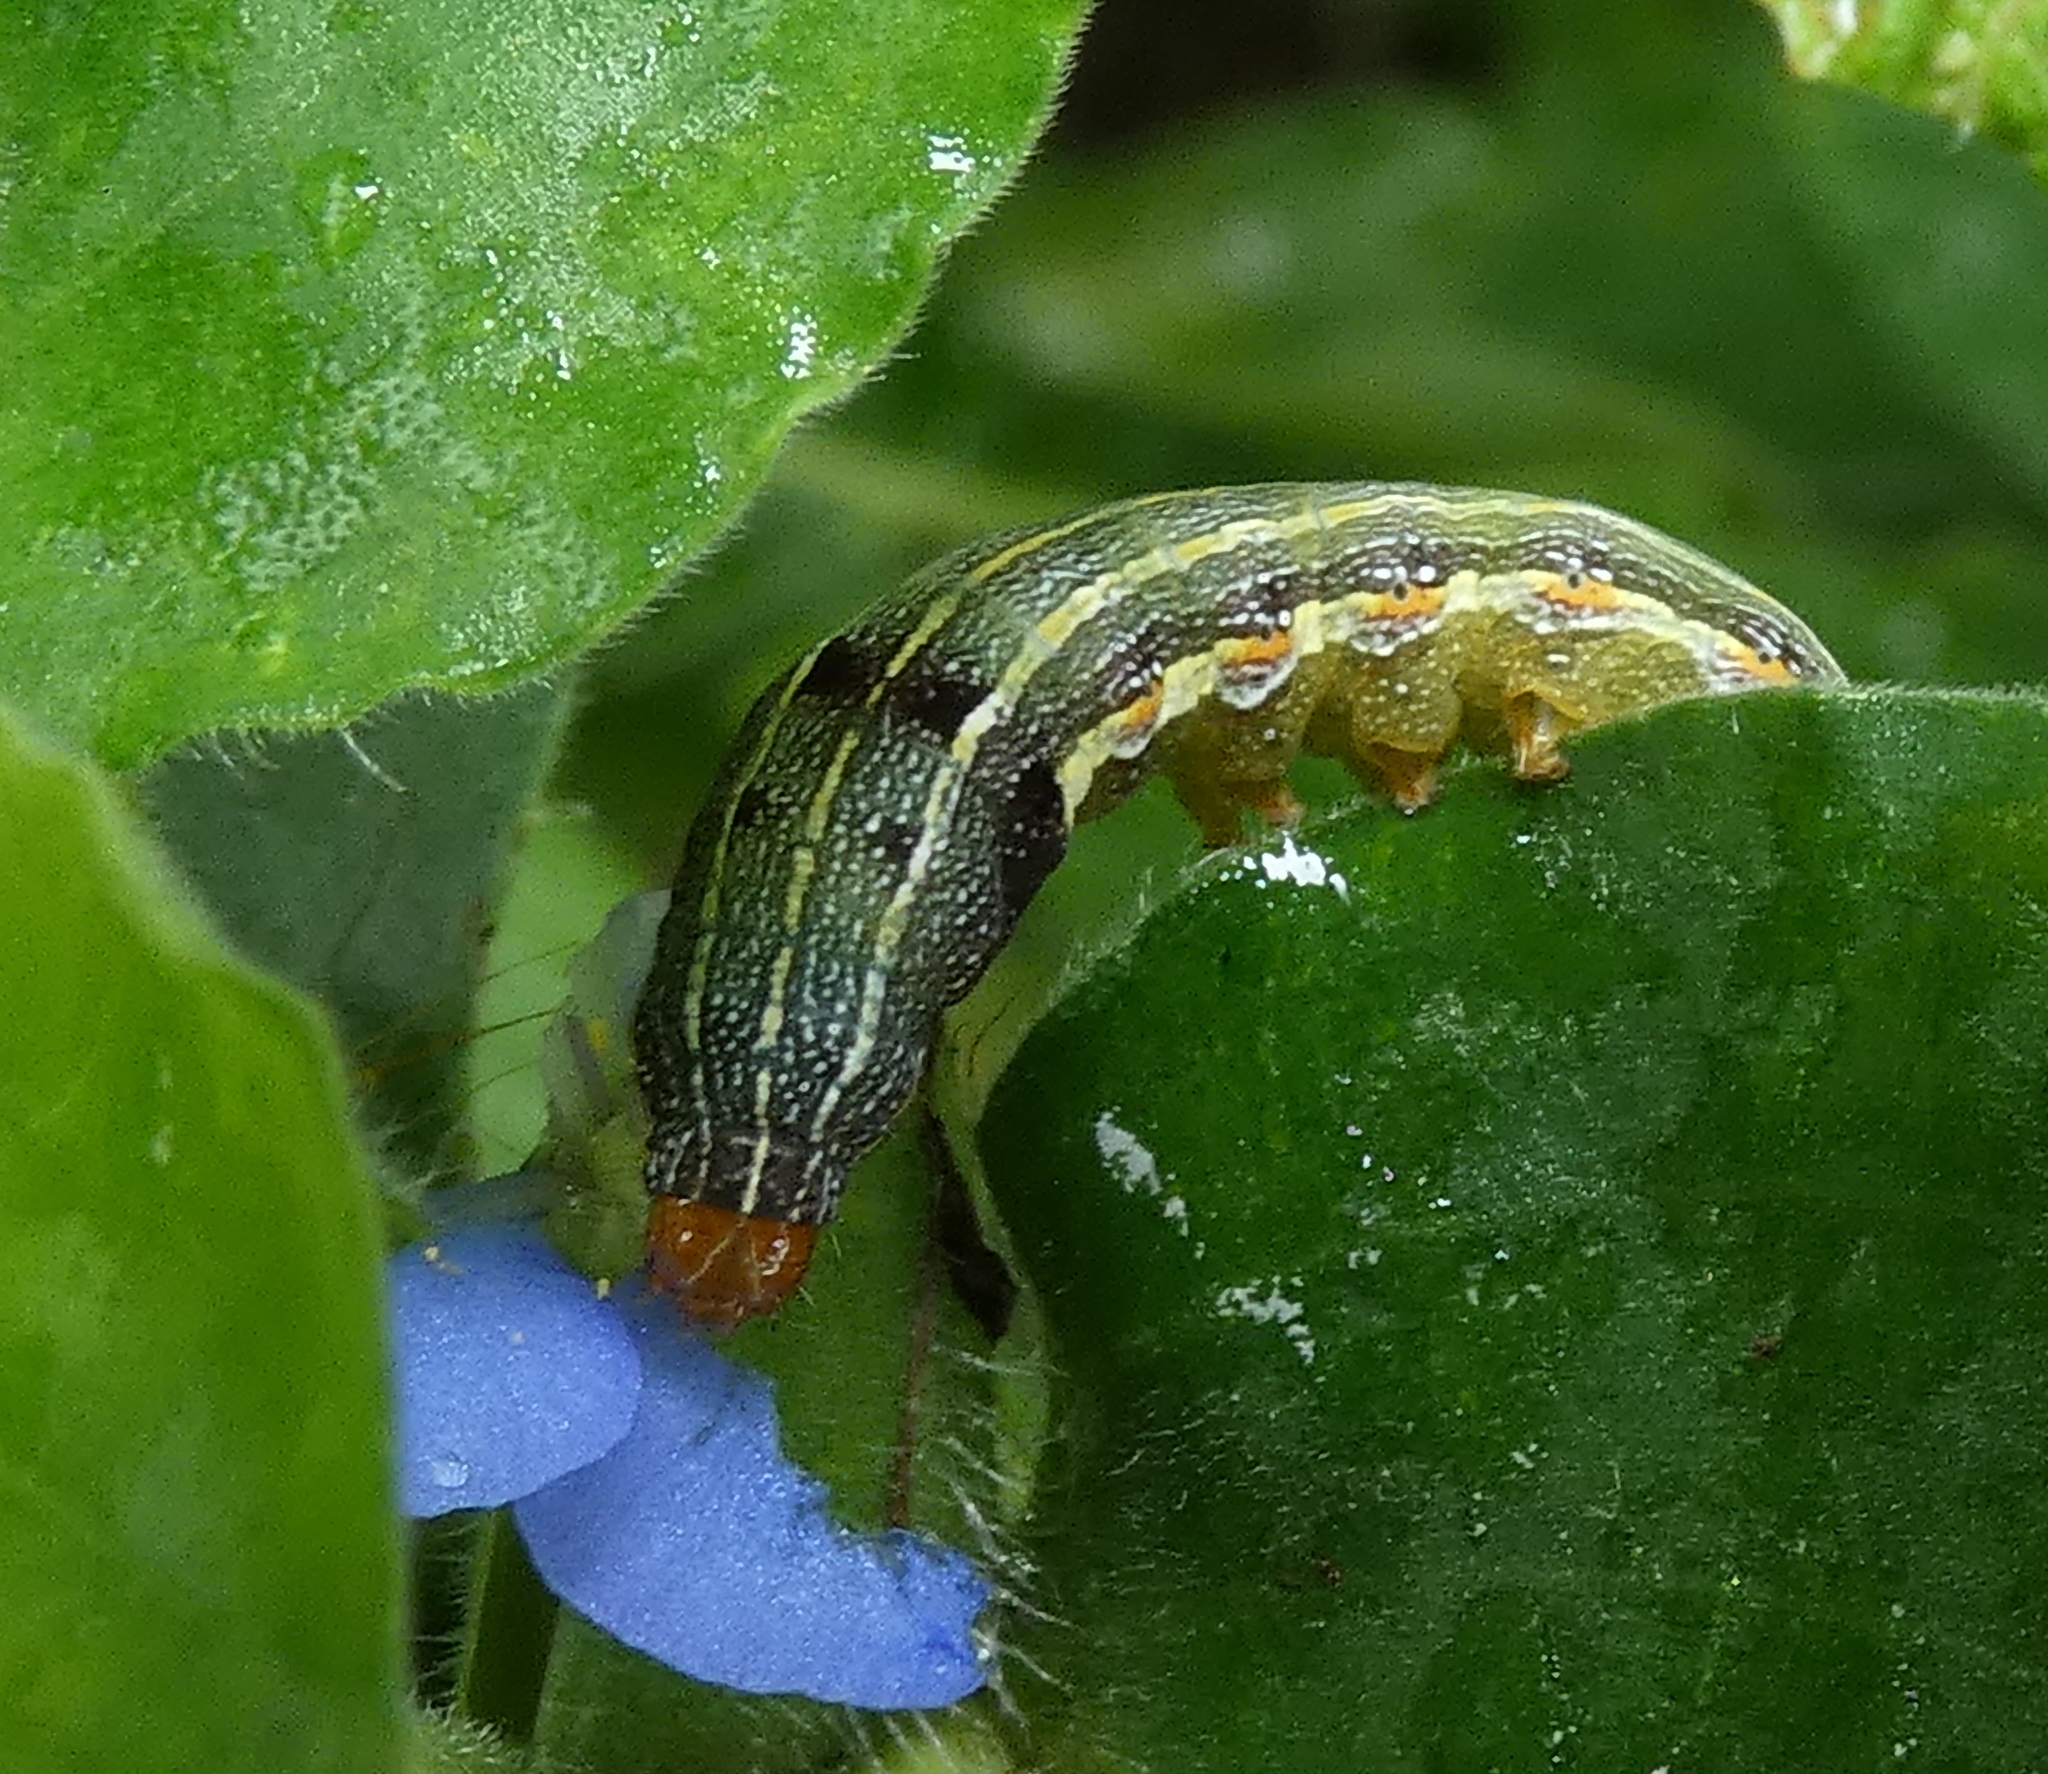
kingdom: Animalia
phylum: Arthropoda
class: Insecta
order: Lepidoptera
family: Noctuidae
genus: Spodoptera
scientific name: Spodoptera eridania
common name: Southern army worm
